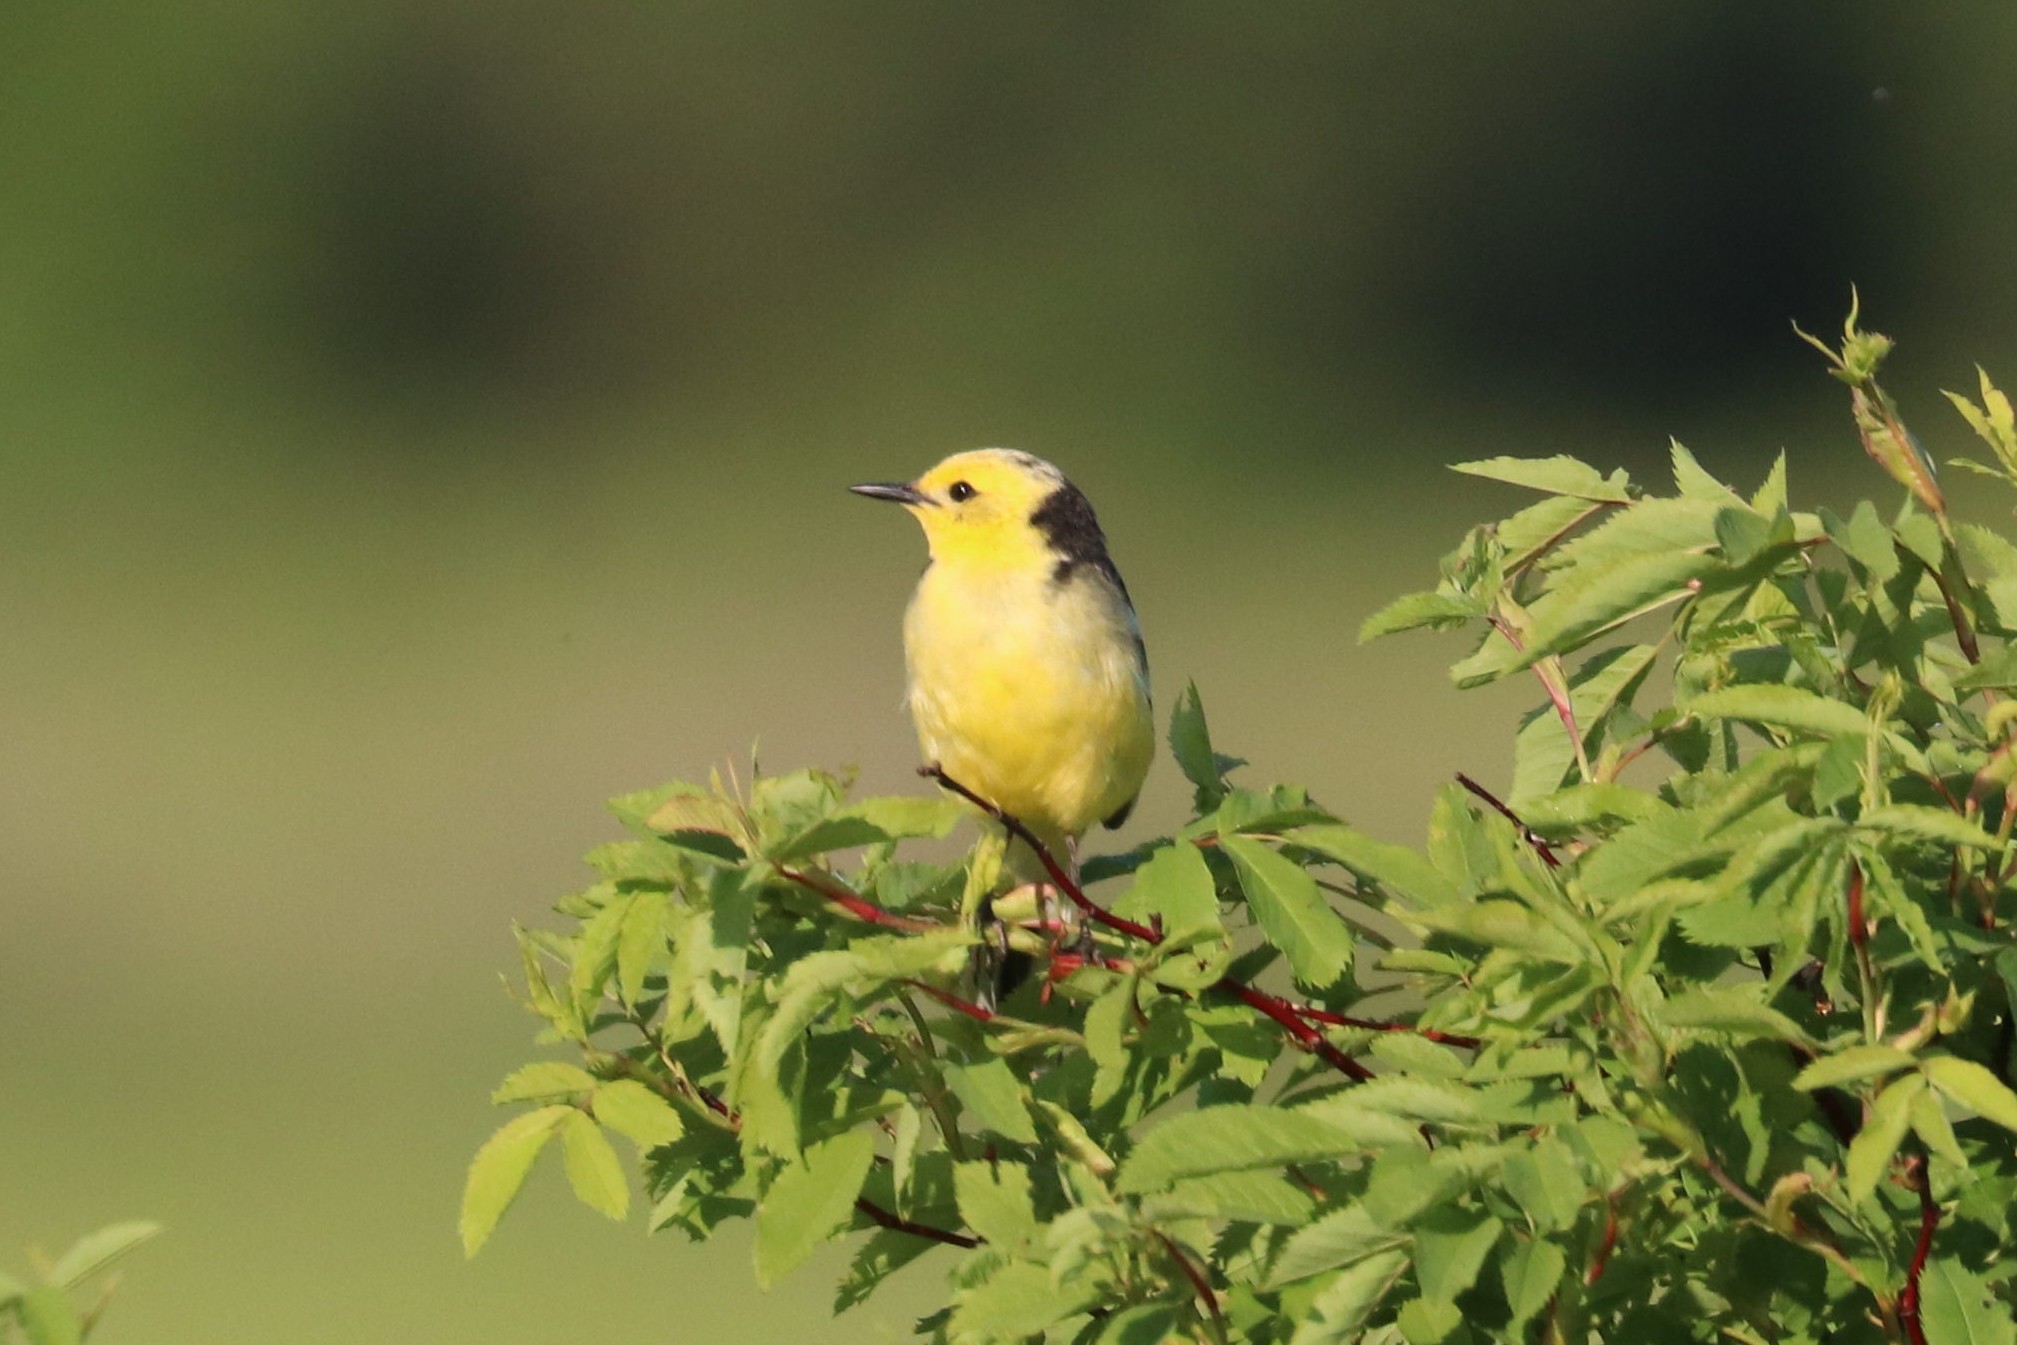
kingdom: Animalia
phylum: Chordata
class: Aves
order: Passeriformes
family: Motacillidae
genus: Motacilla
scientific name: Motacilla citreola
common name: Citrine wagtail
